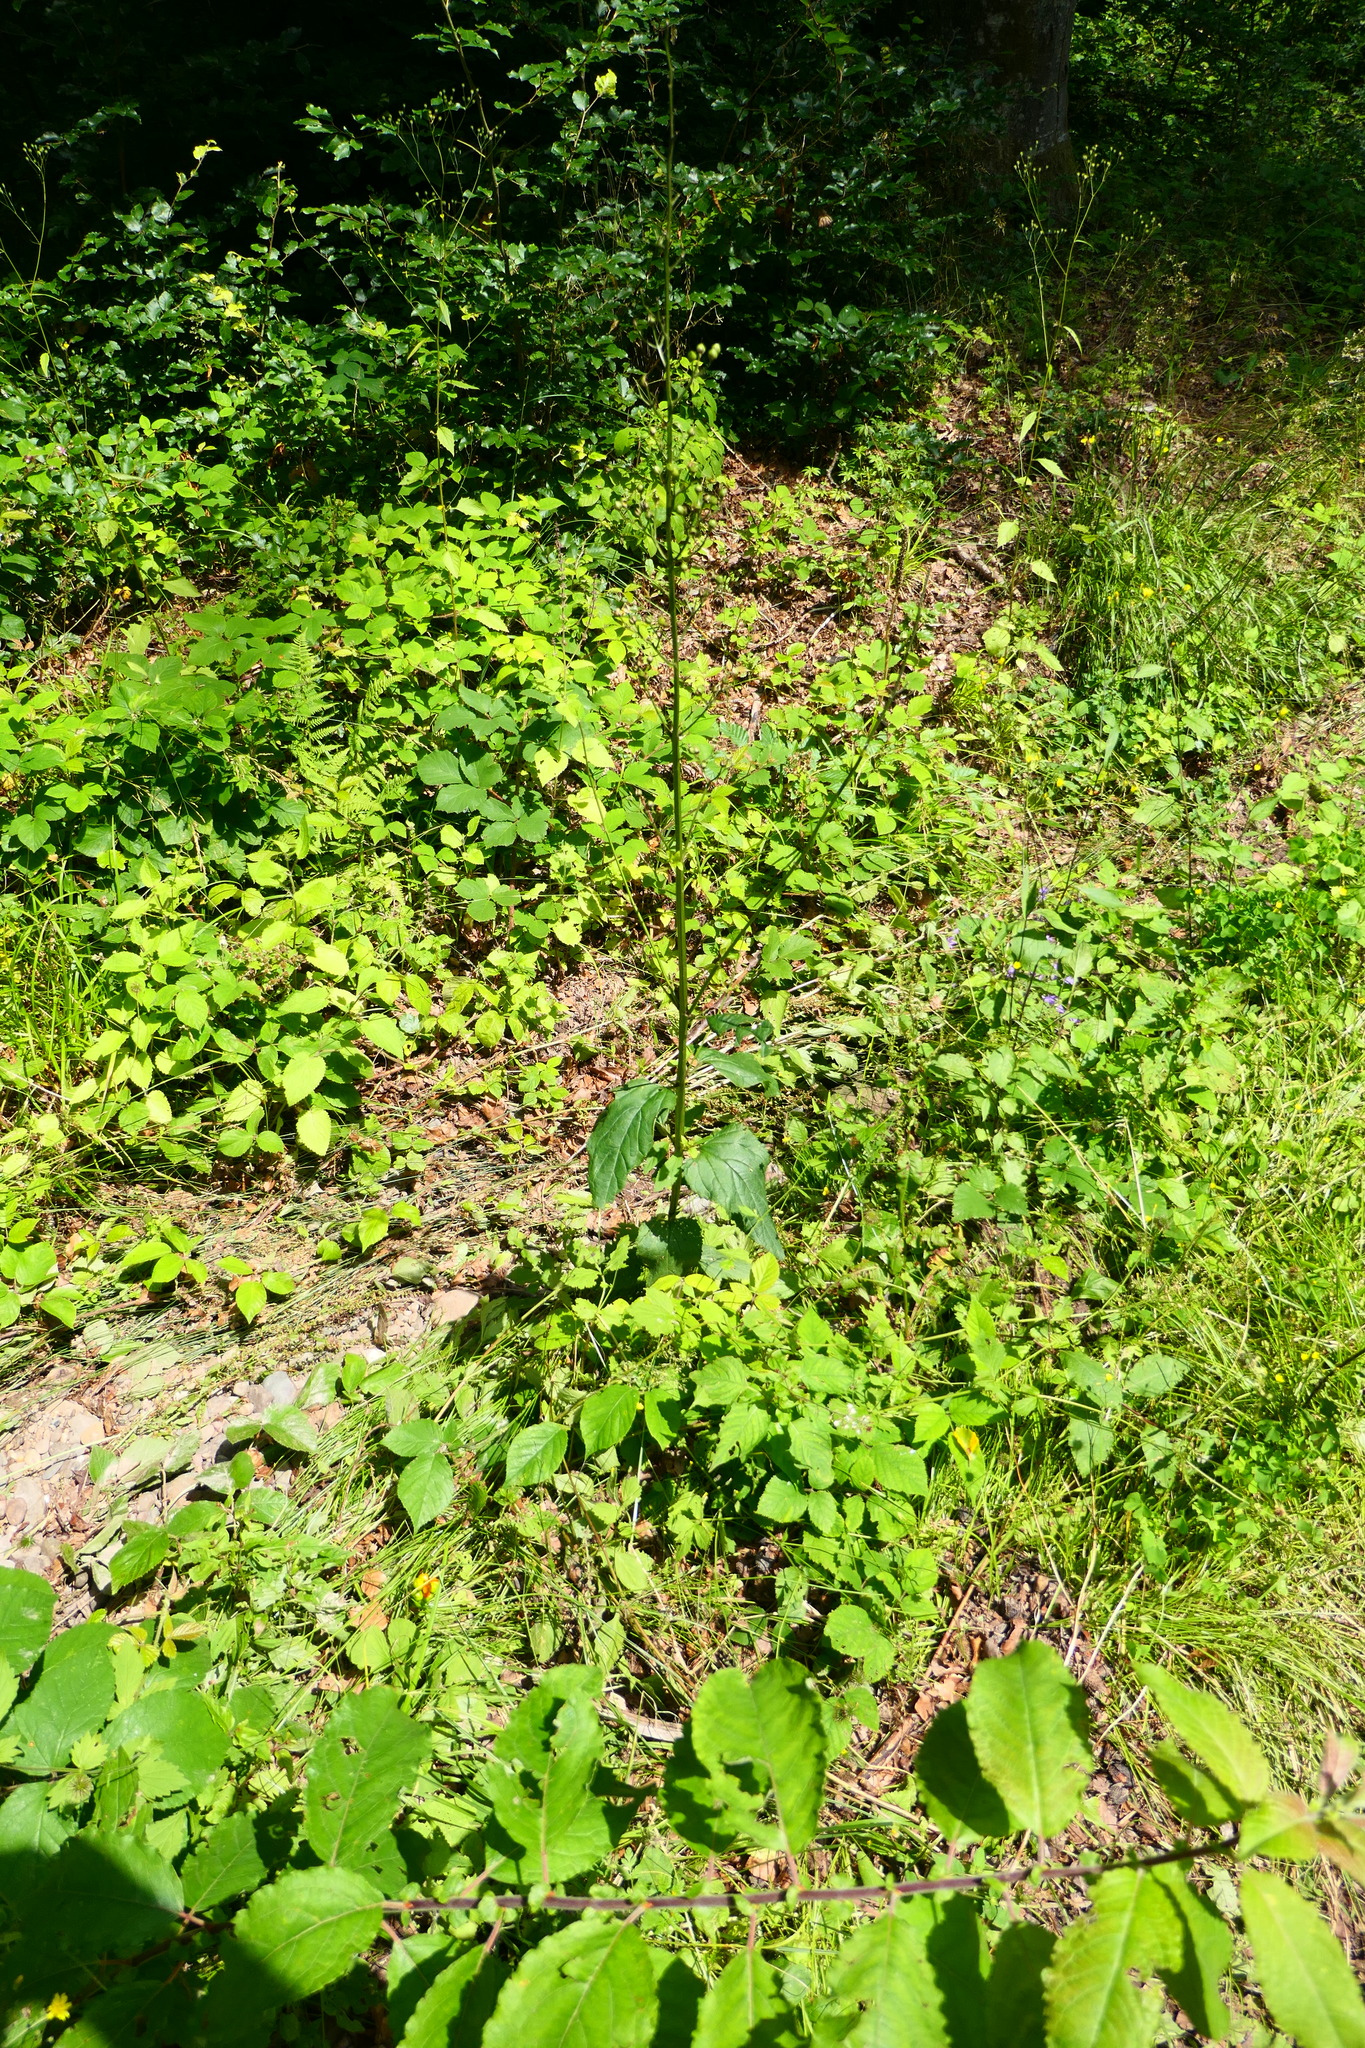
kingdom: Plantae
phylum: Tracheophyta
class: Magnoliopsida
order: Asterales
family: Asteraceae
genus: Lapsana
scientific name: Lapsana communis
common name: Nipplewort
